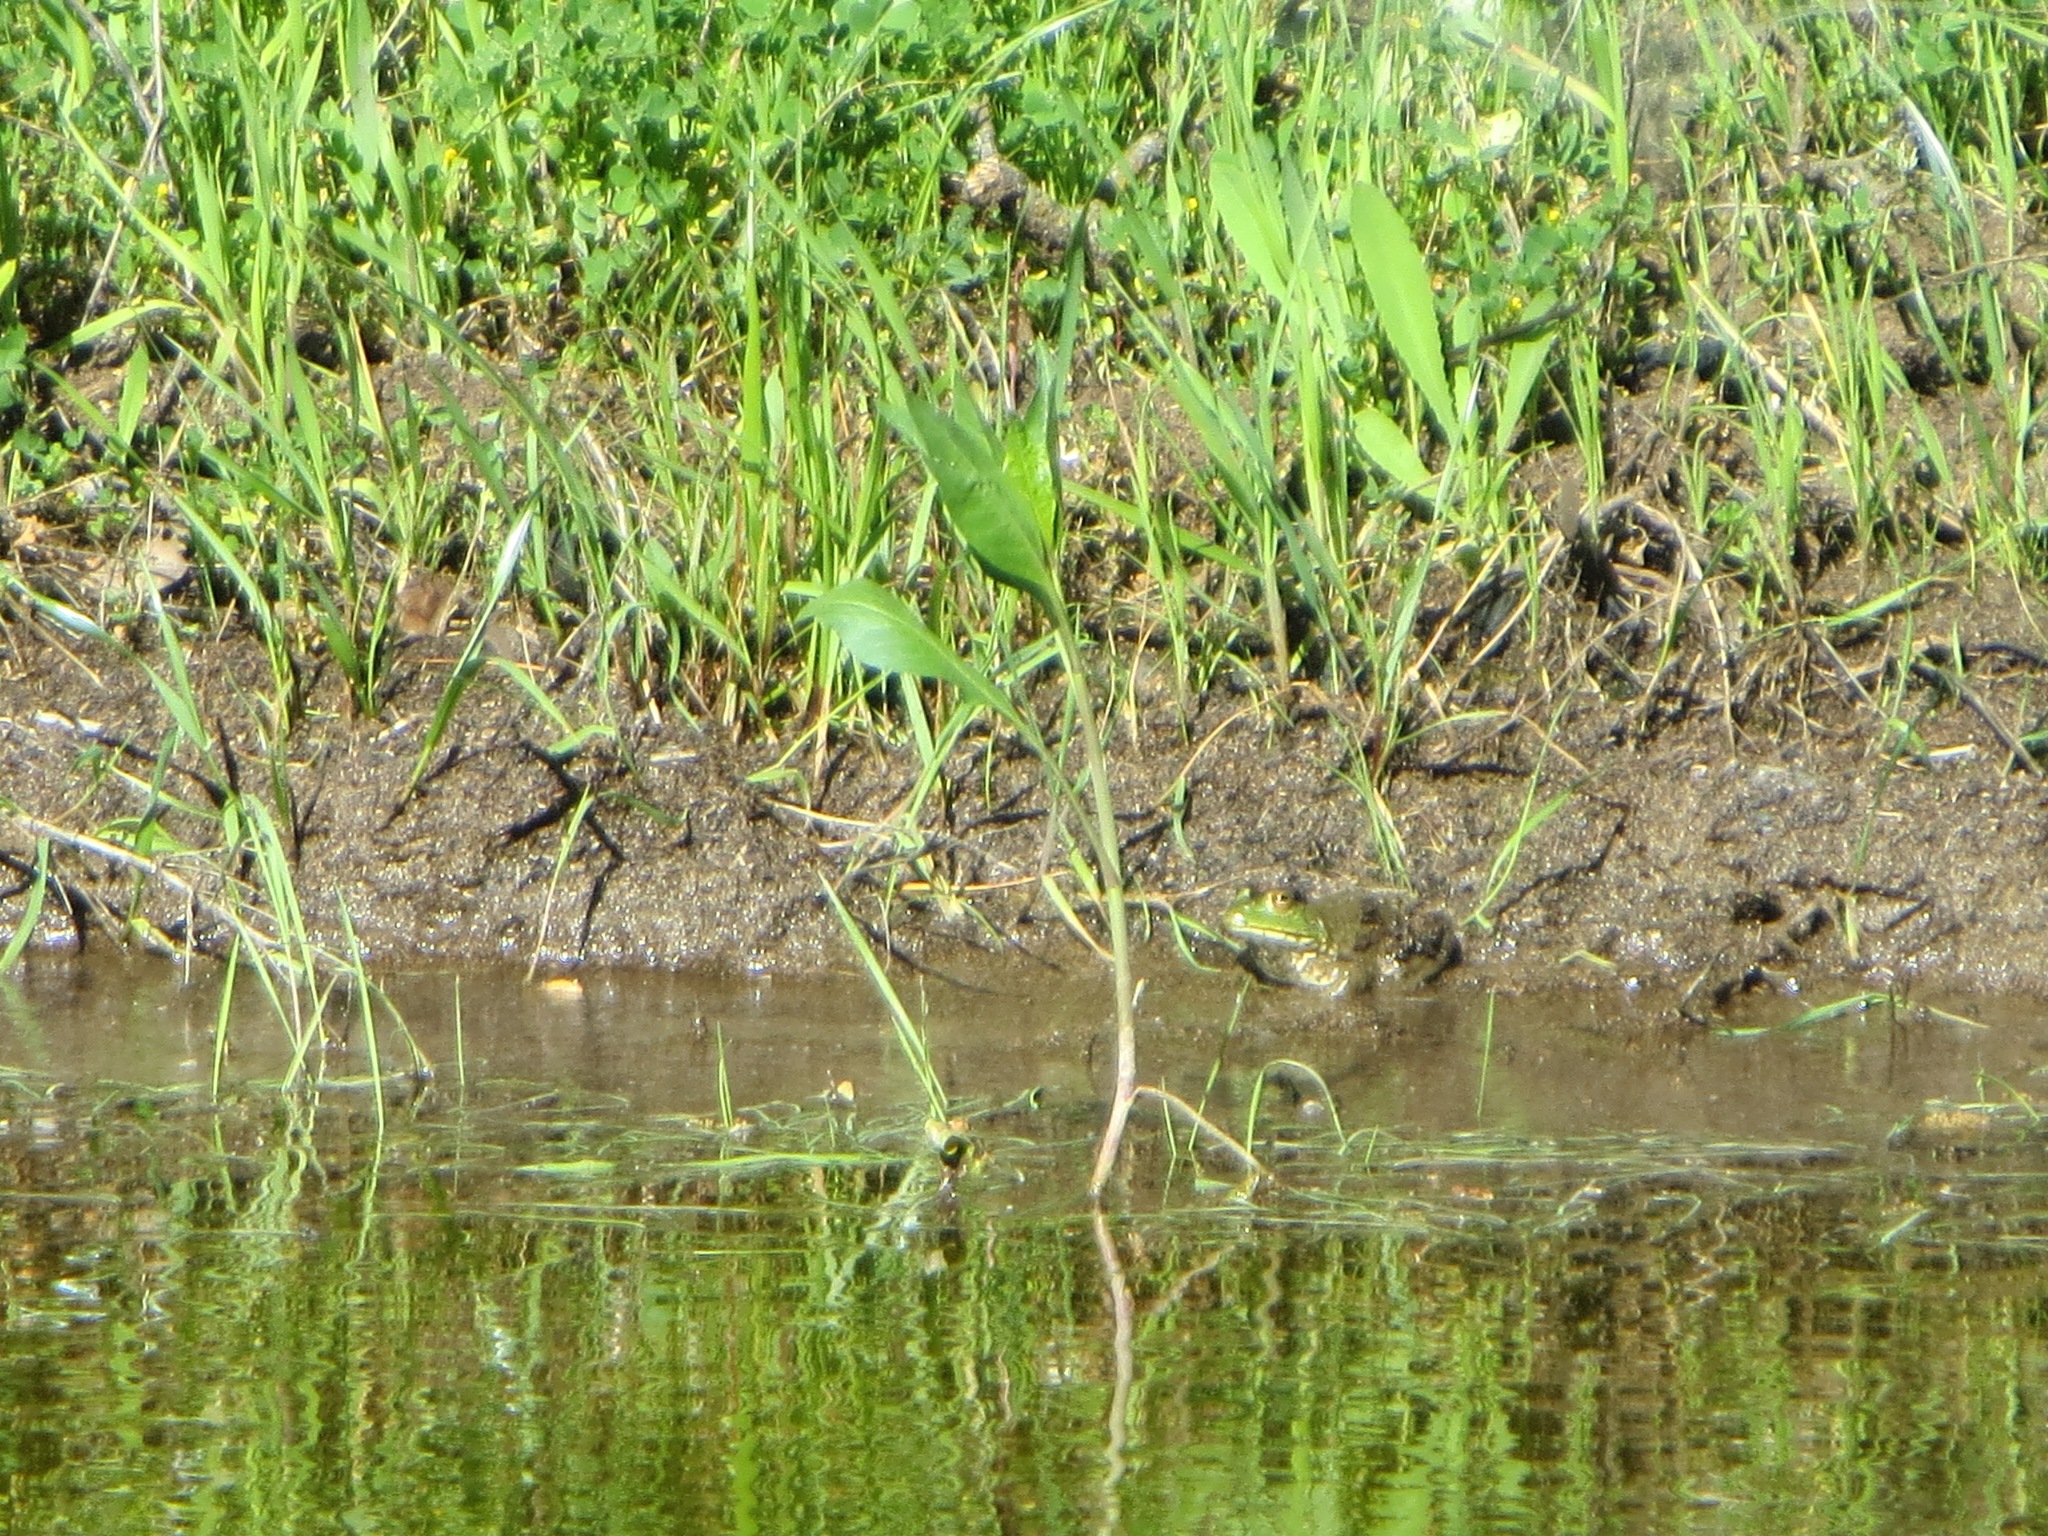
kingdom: Animalia
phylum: Chordata
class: Amphibia
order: Anura
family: Ranidae
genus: Lithobates
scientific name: Lithobates catesbeianus
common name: American bullfrog
